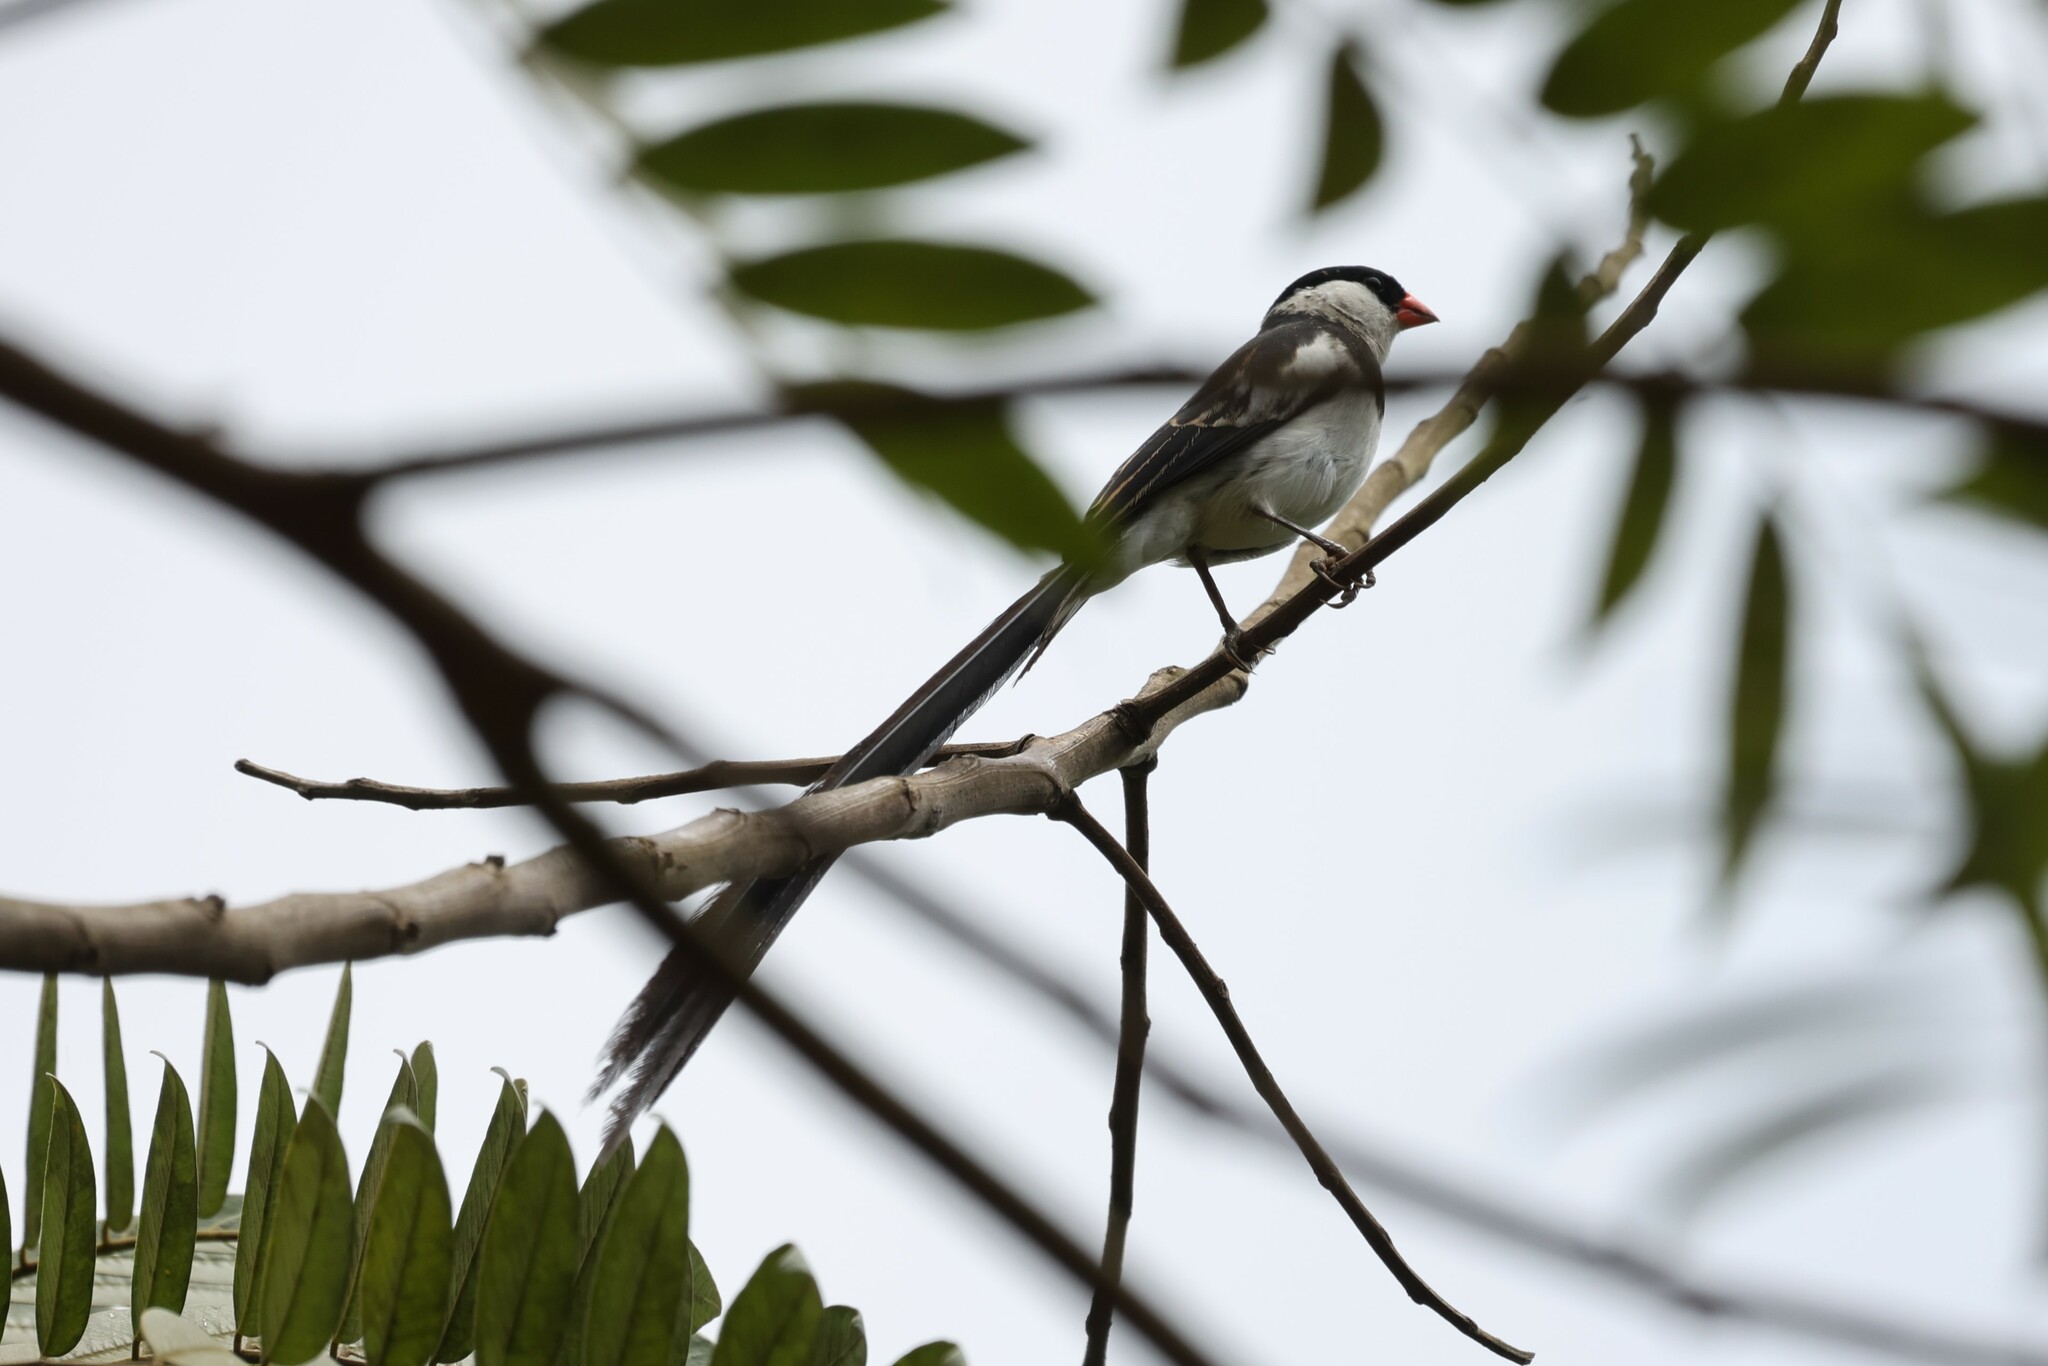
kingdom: Animalia
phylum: Chordata
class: Aves
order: Passeriformes
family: Viduidae
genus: Vidua
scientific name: Vidua macroura
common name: Pin-tailed whydah
